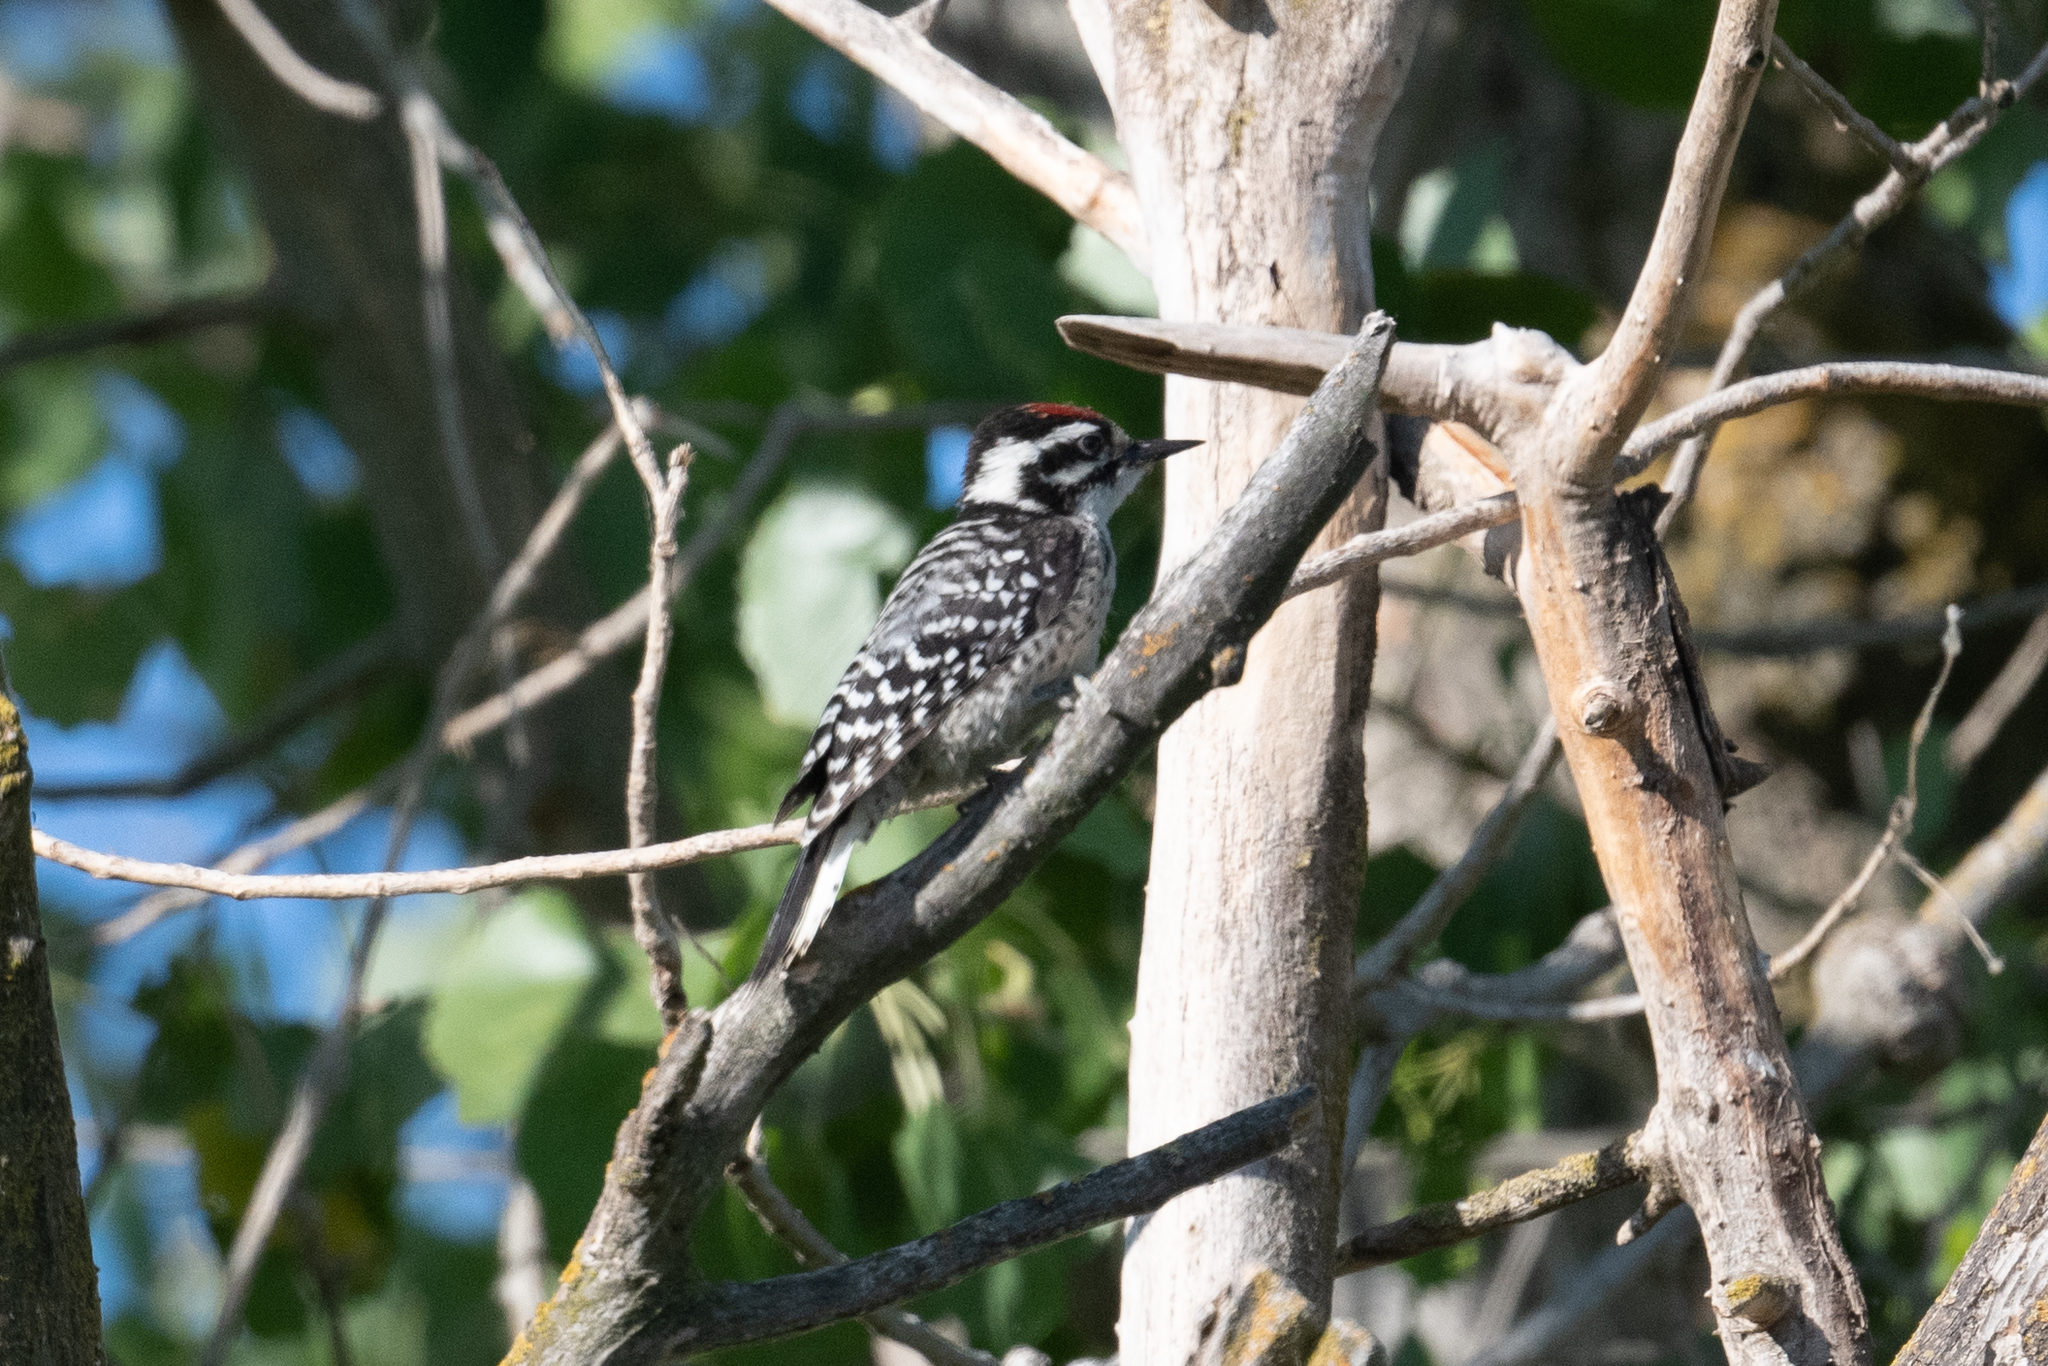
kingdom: Animalia
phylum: Chordata
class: Aves
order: Piciformes
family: Picidae
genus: Dryobates
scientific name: Dryobates nuttallii
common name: Nuttall's woodpecker
